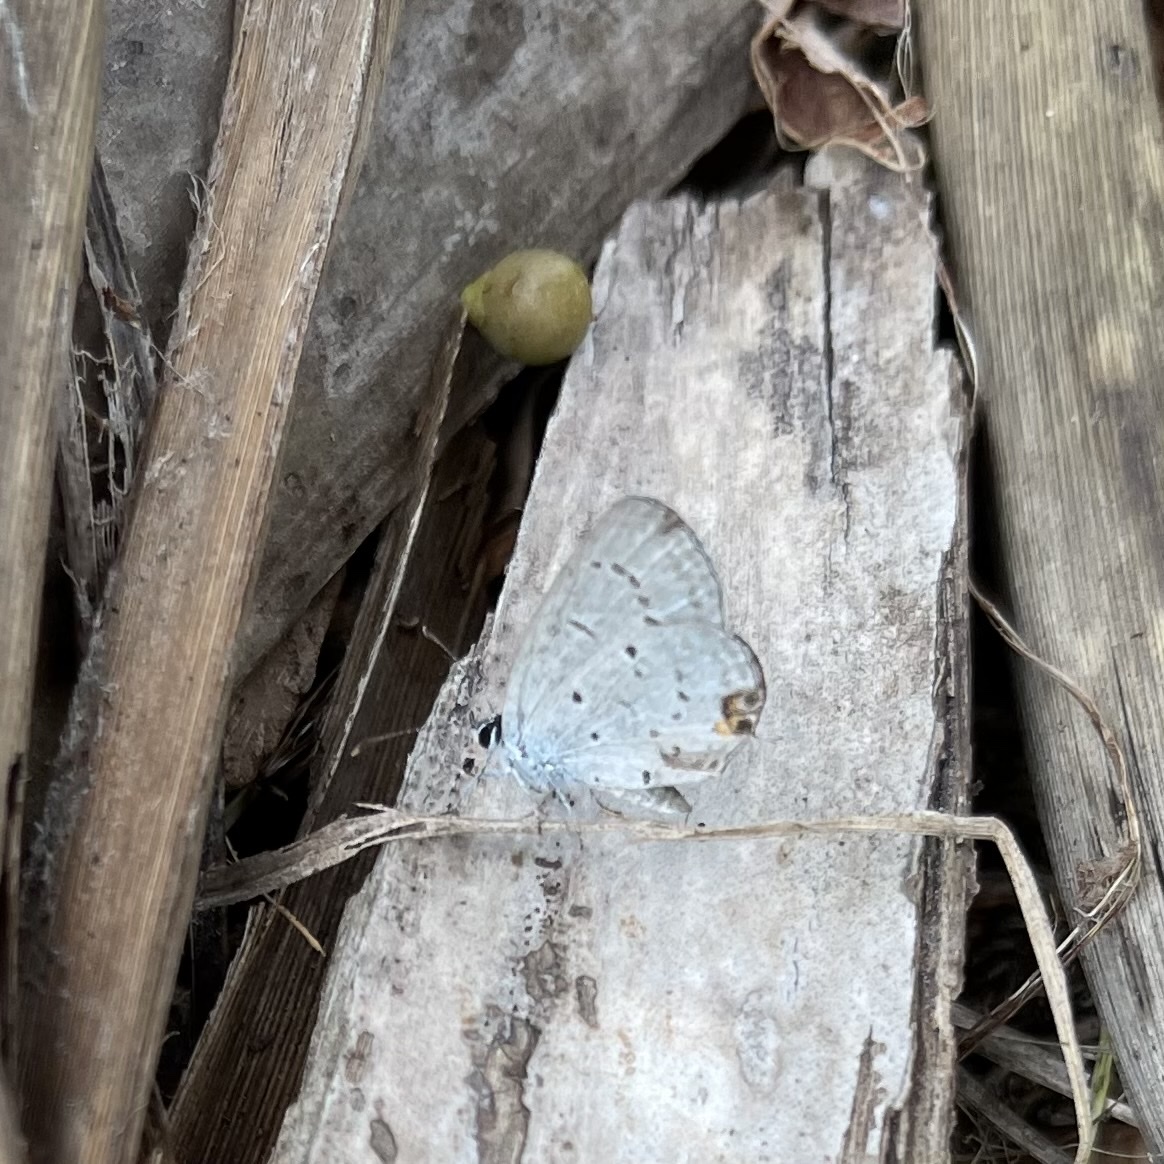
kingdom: Animalia
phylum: Arthropoda
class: Insecta
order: Lepidoptera
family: Lycaenidae
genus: Elkalyce
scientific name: Elkalyce texana
